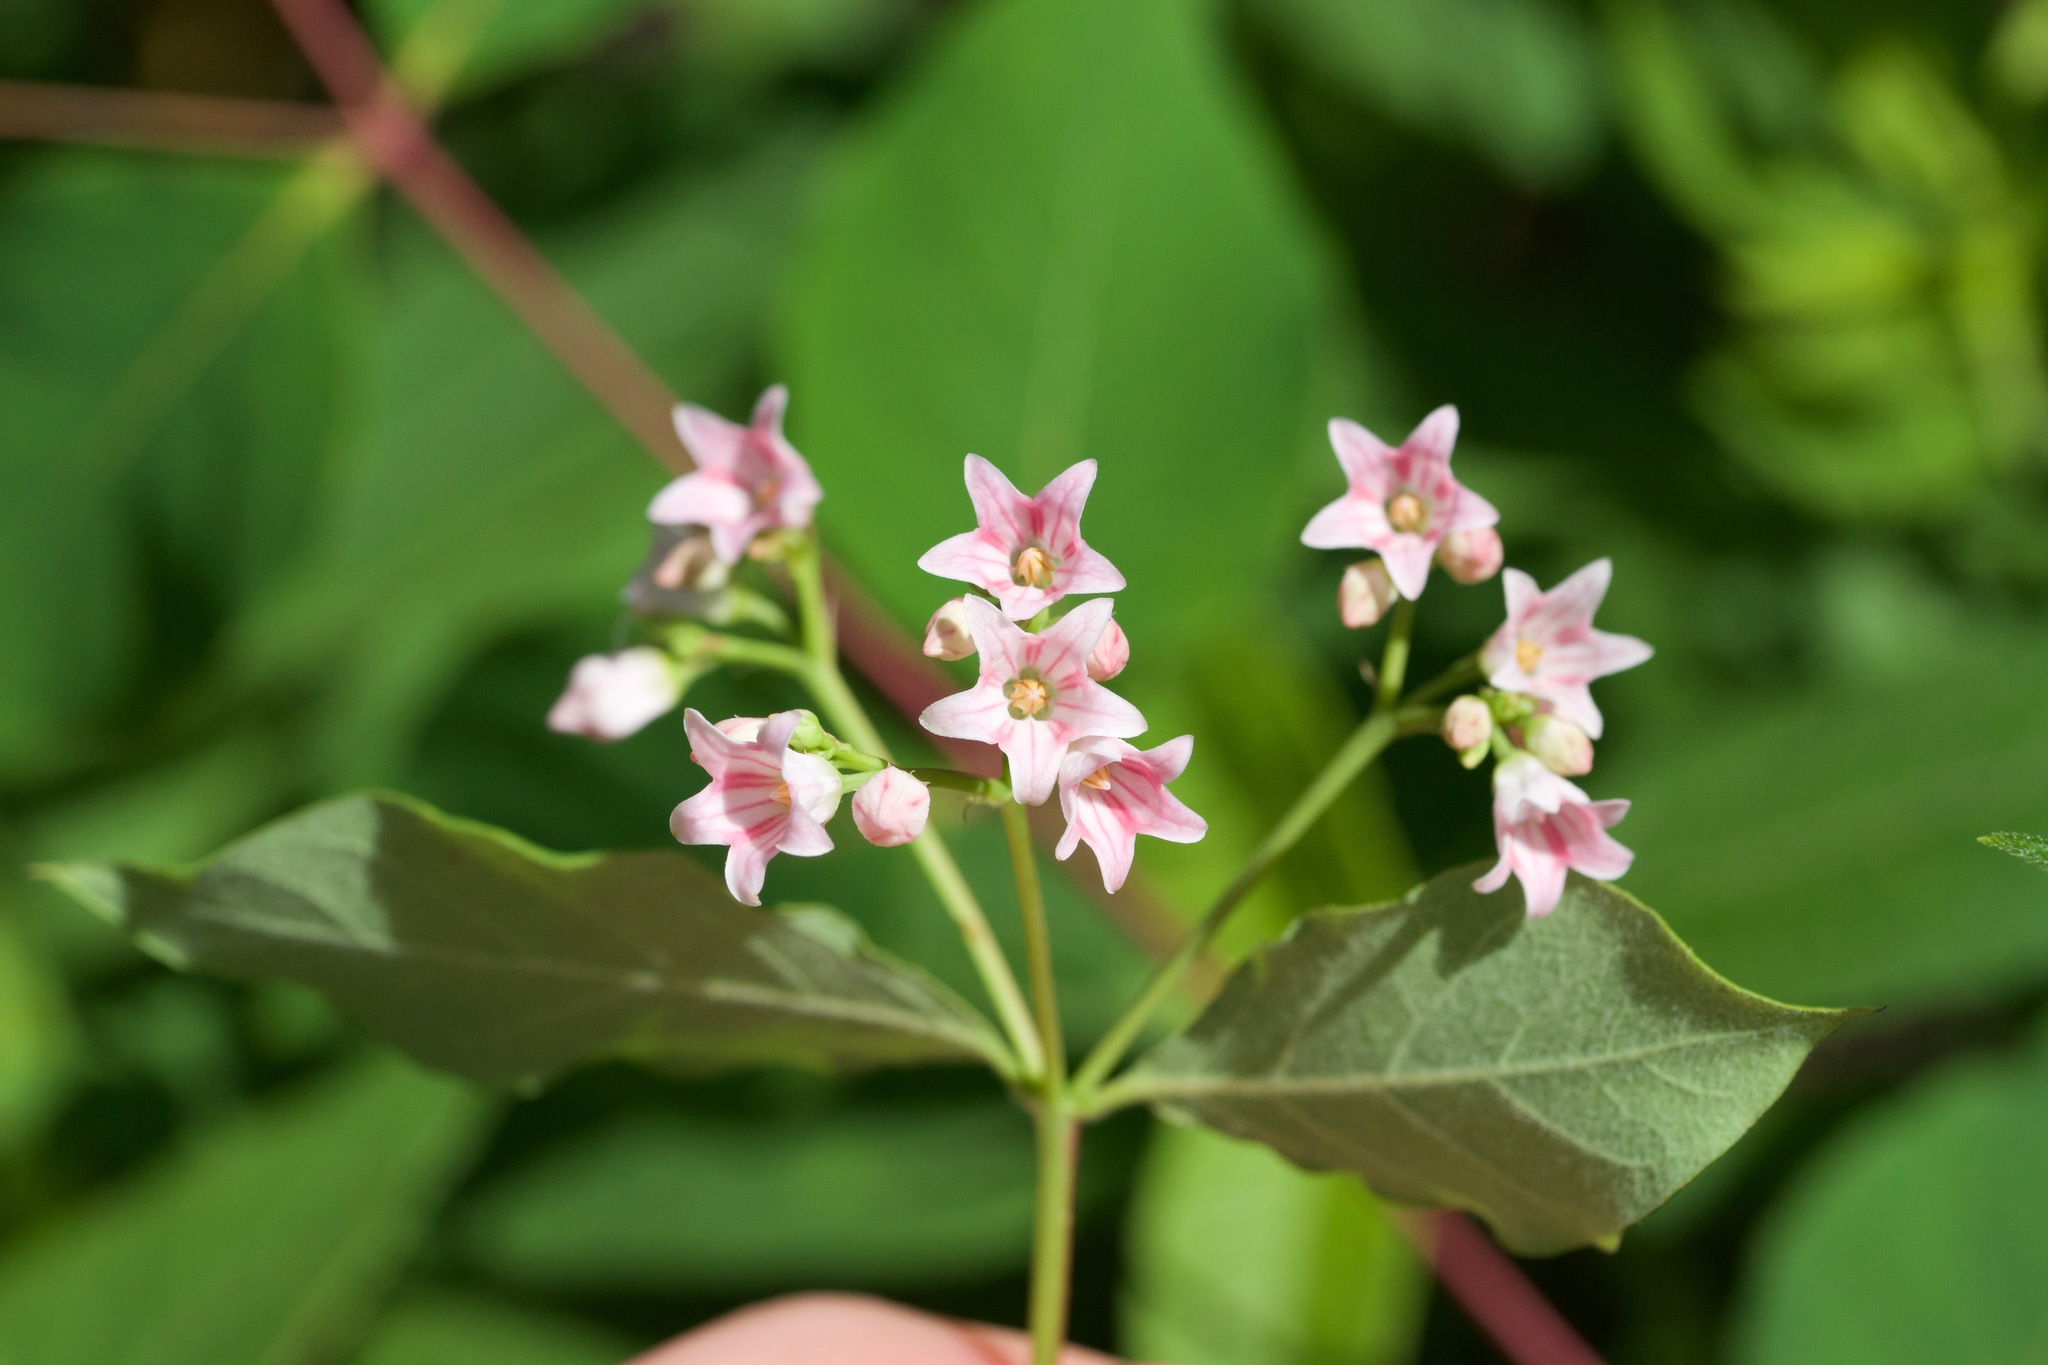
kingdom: Plantae
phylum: Tracheophyta
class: Magnoliopsida
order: Gentianales
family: Apocynaceae
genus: Apocynum
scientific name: Apocynum floribundum
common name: Hybrid dogbane
